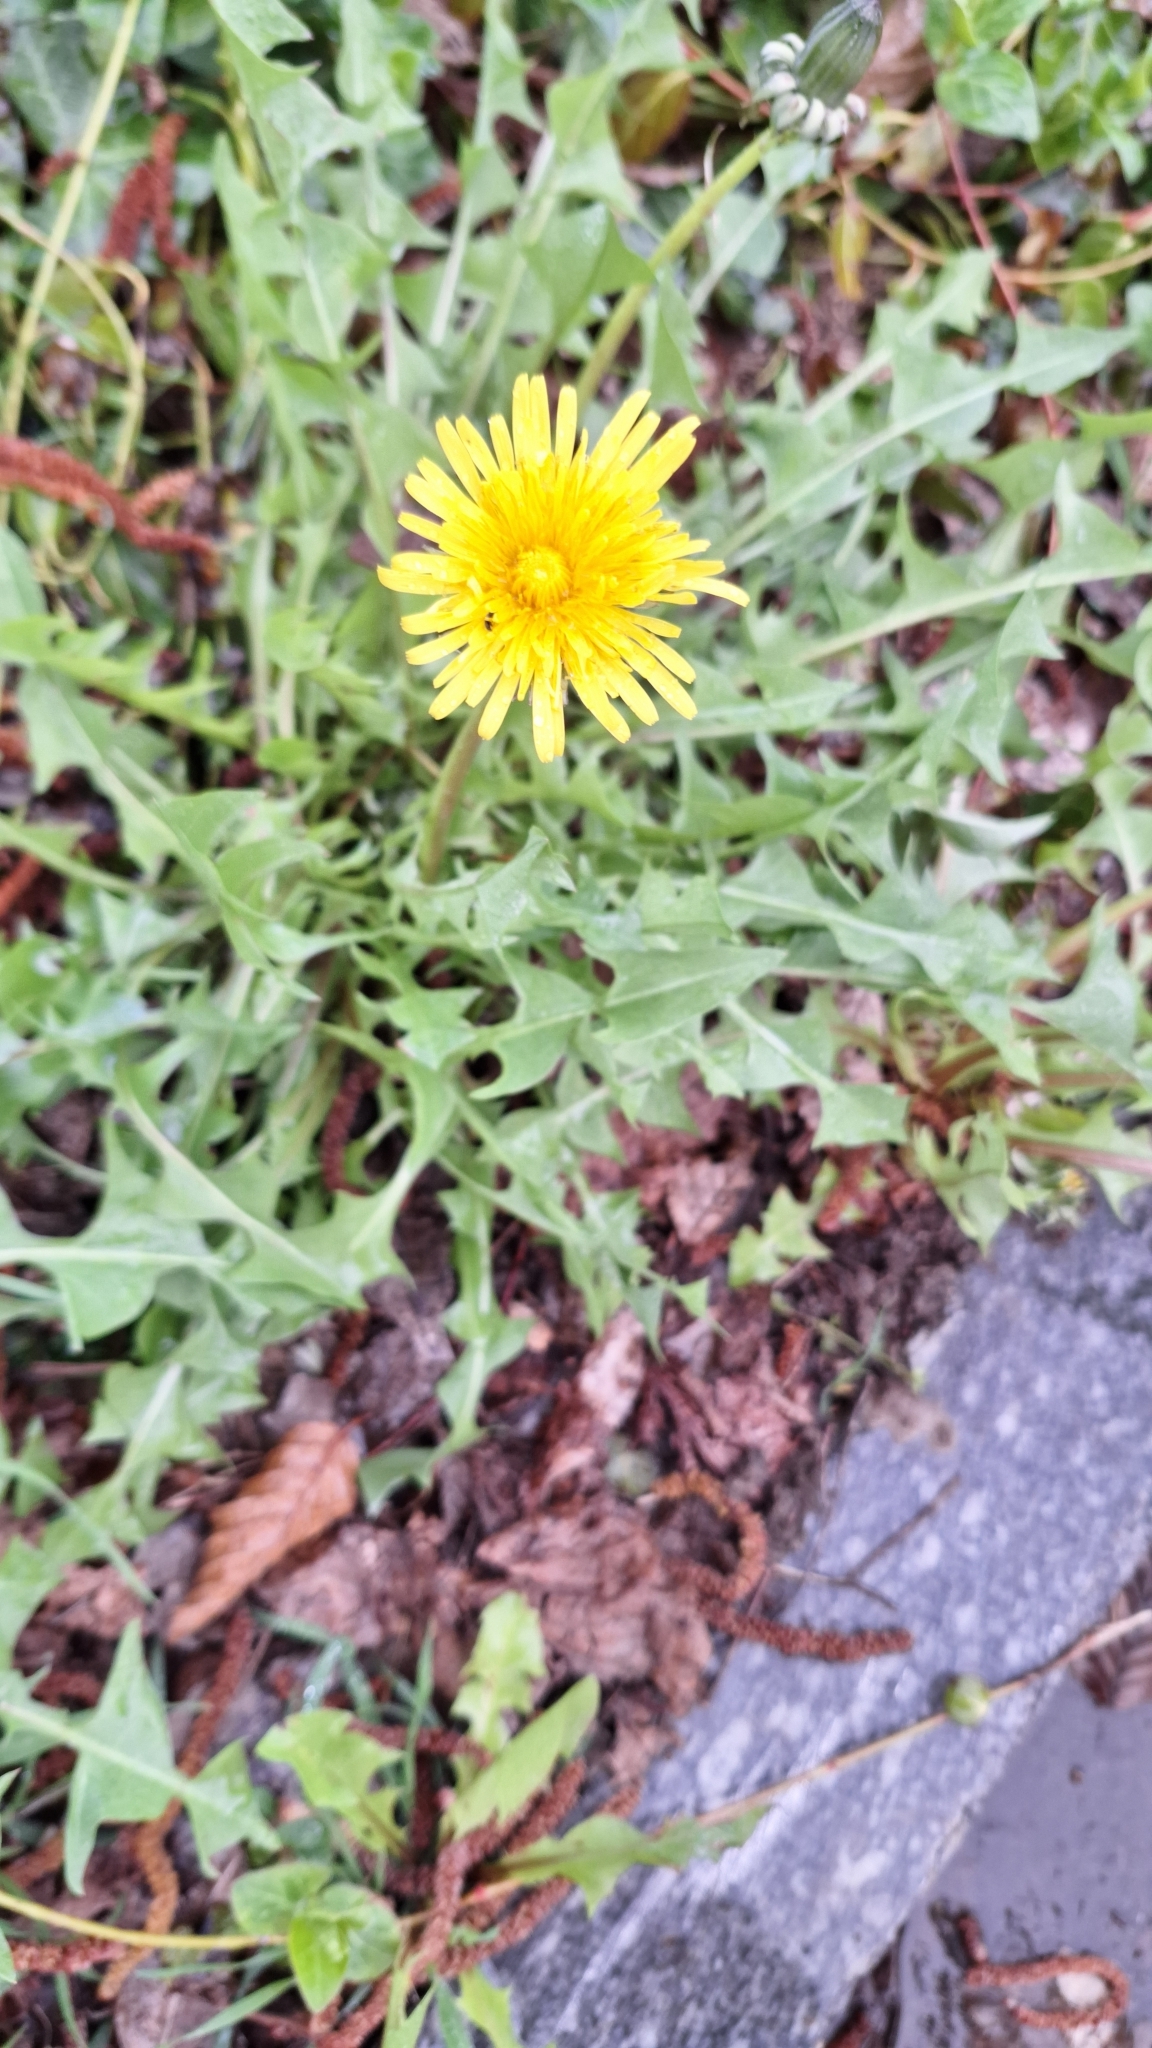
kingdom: Plantae
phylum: Tracheophyta
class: Magnoliopsida
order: Asterales
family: Asteraceae
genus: Taraxacum
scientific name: Taraxacum officinale
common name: Common dandelion
